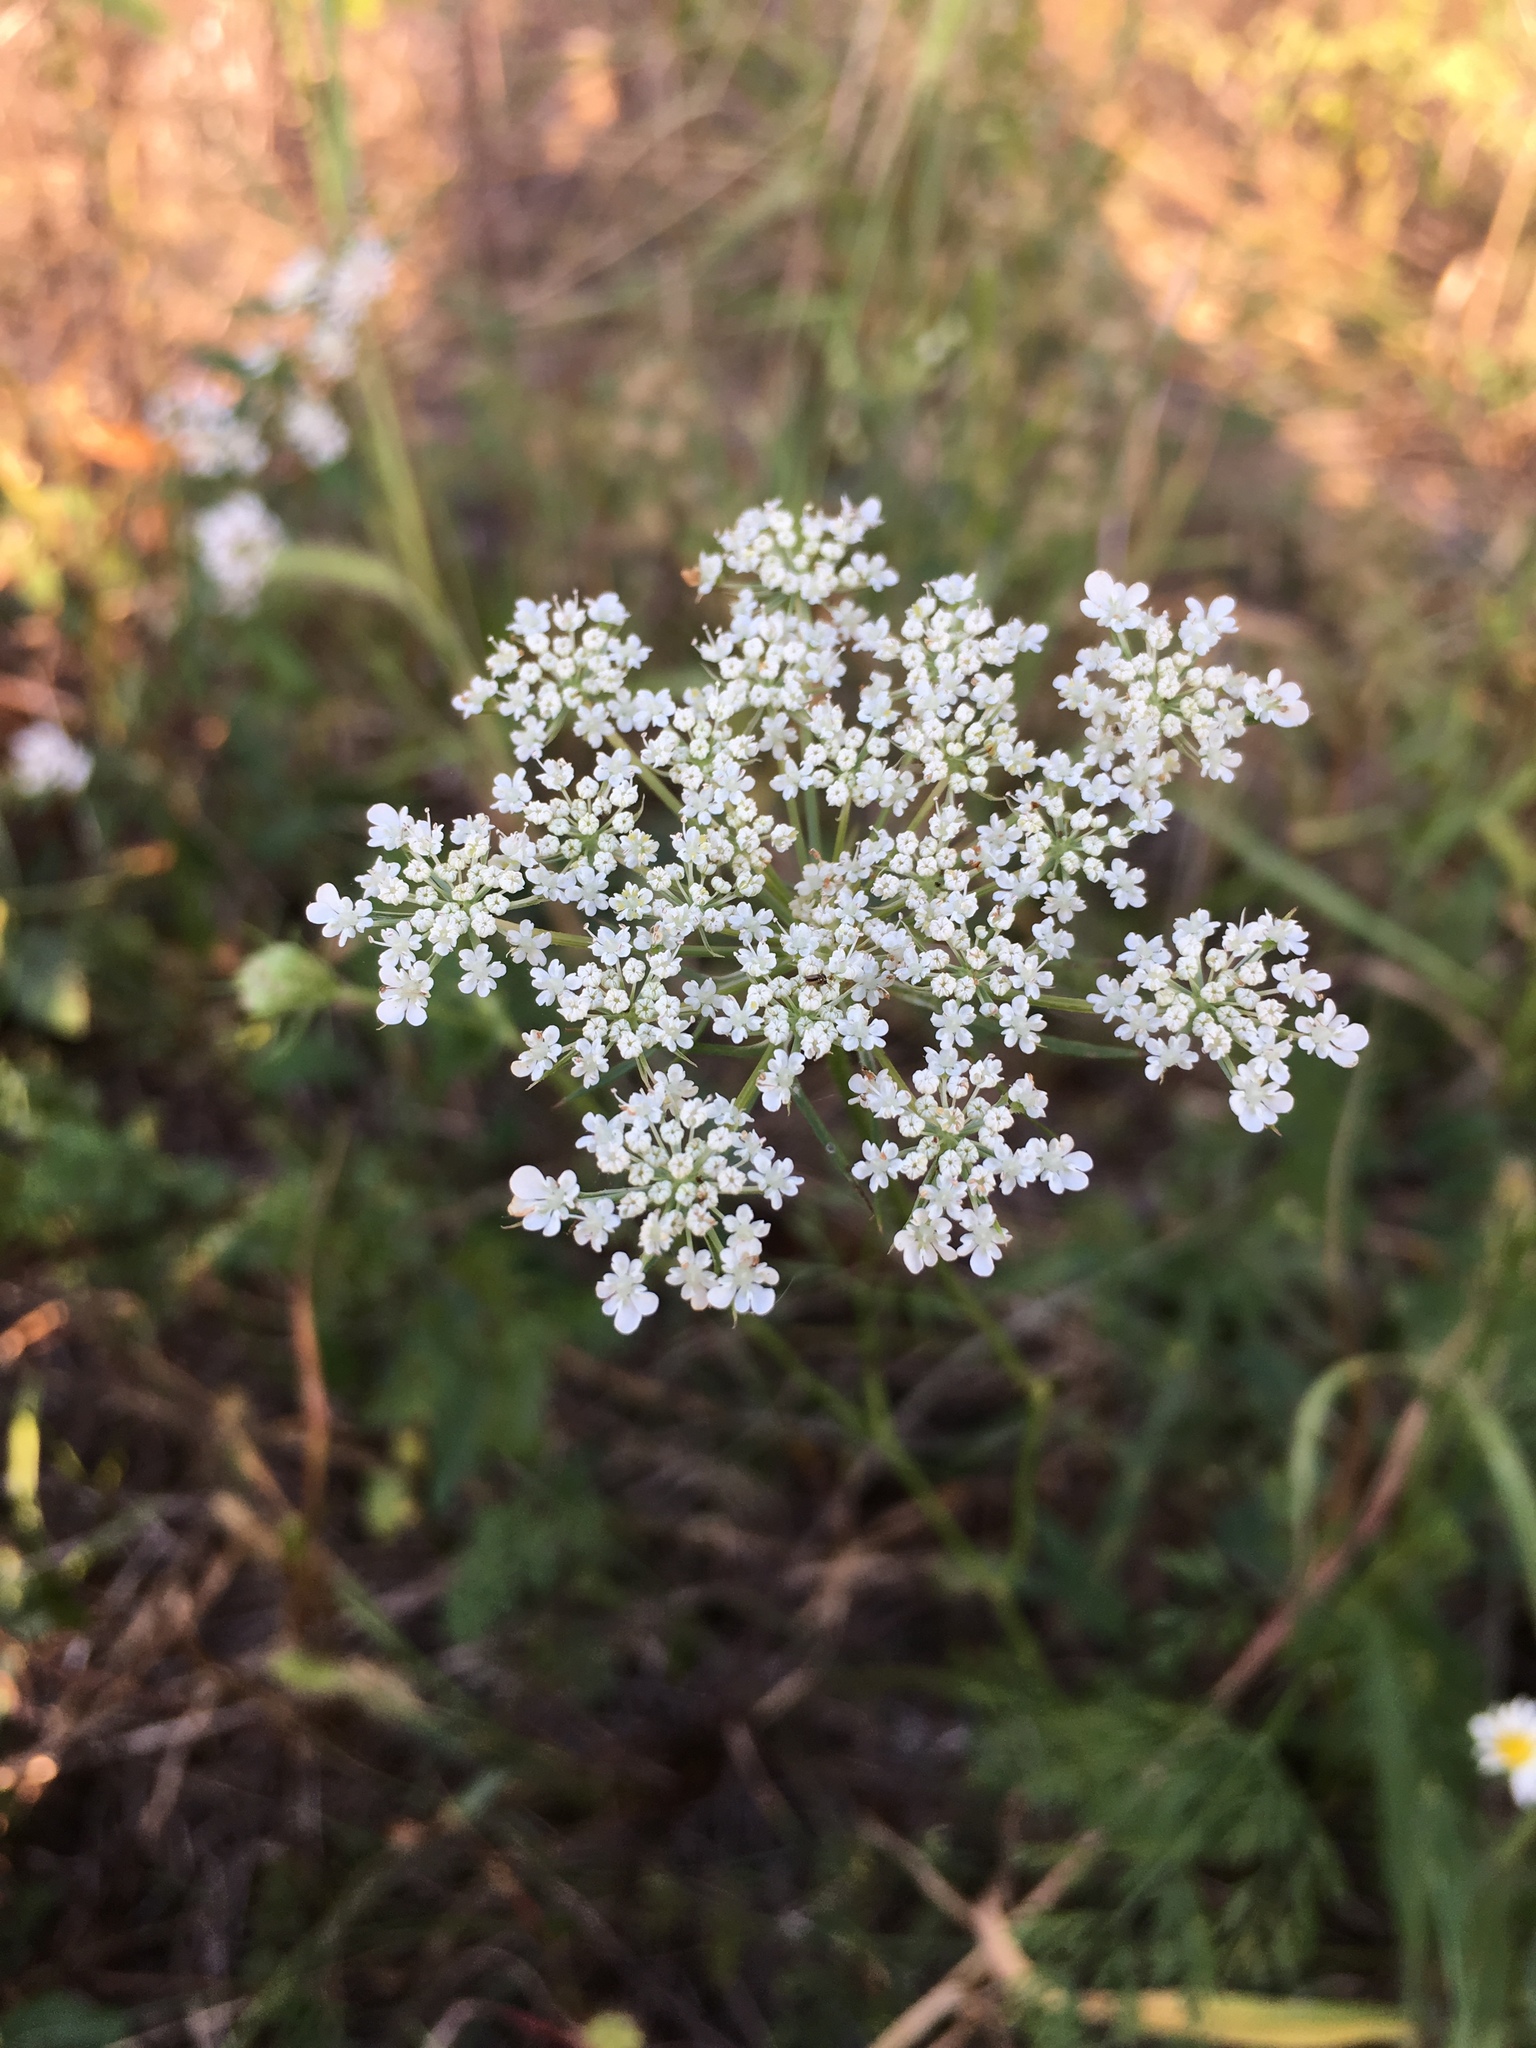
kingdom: Plantae
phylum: Tracheophyta
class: Magnoliopsida
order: Apiales
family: Apiaceae
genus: Daucus
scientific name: Daucus carota
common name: Wild carrot
